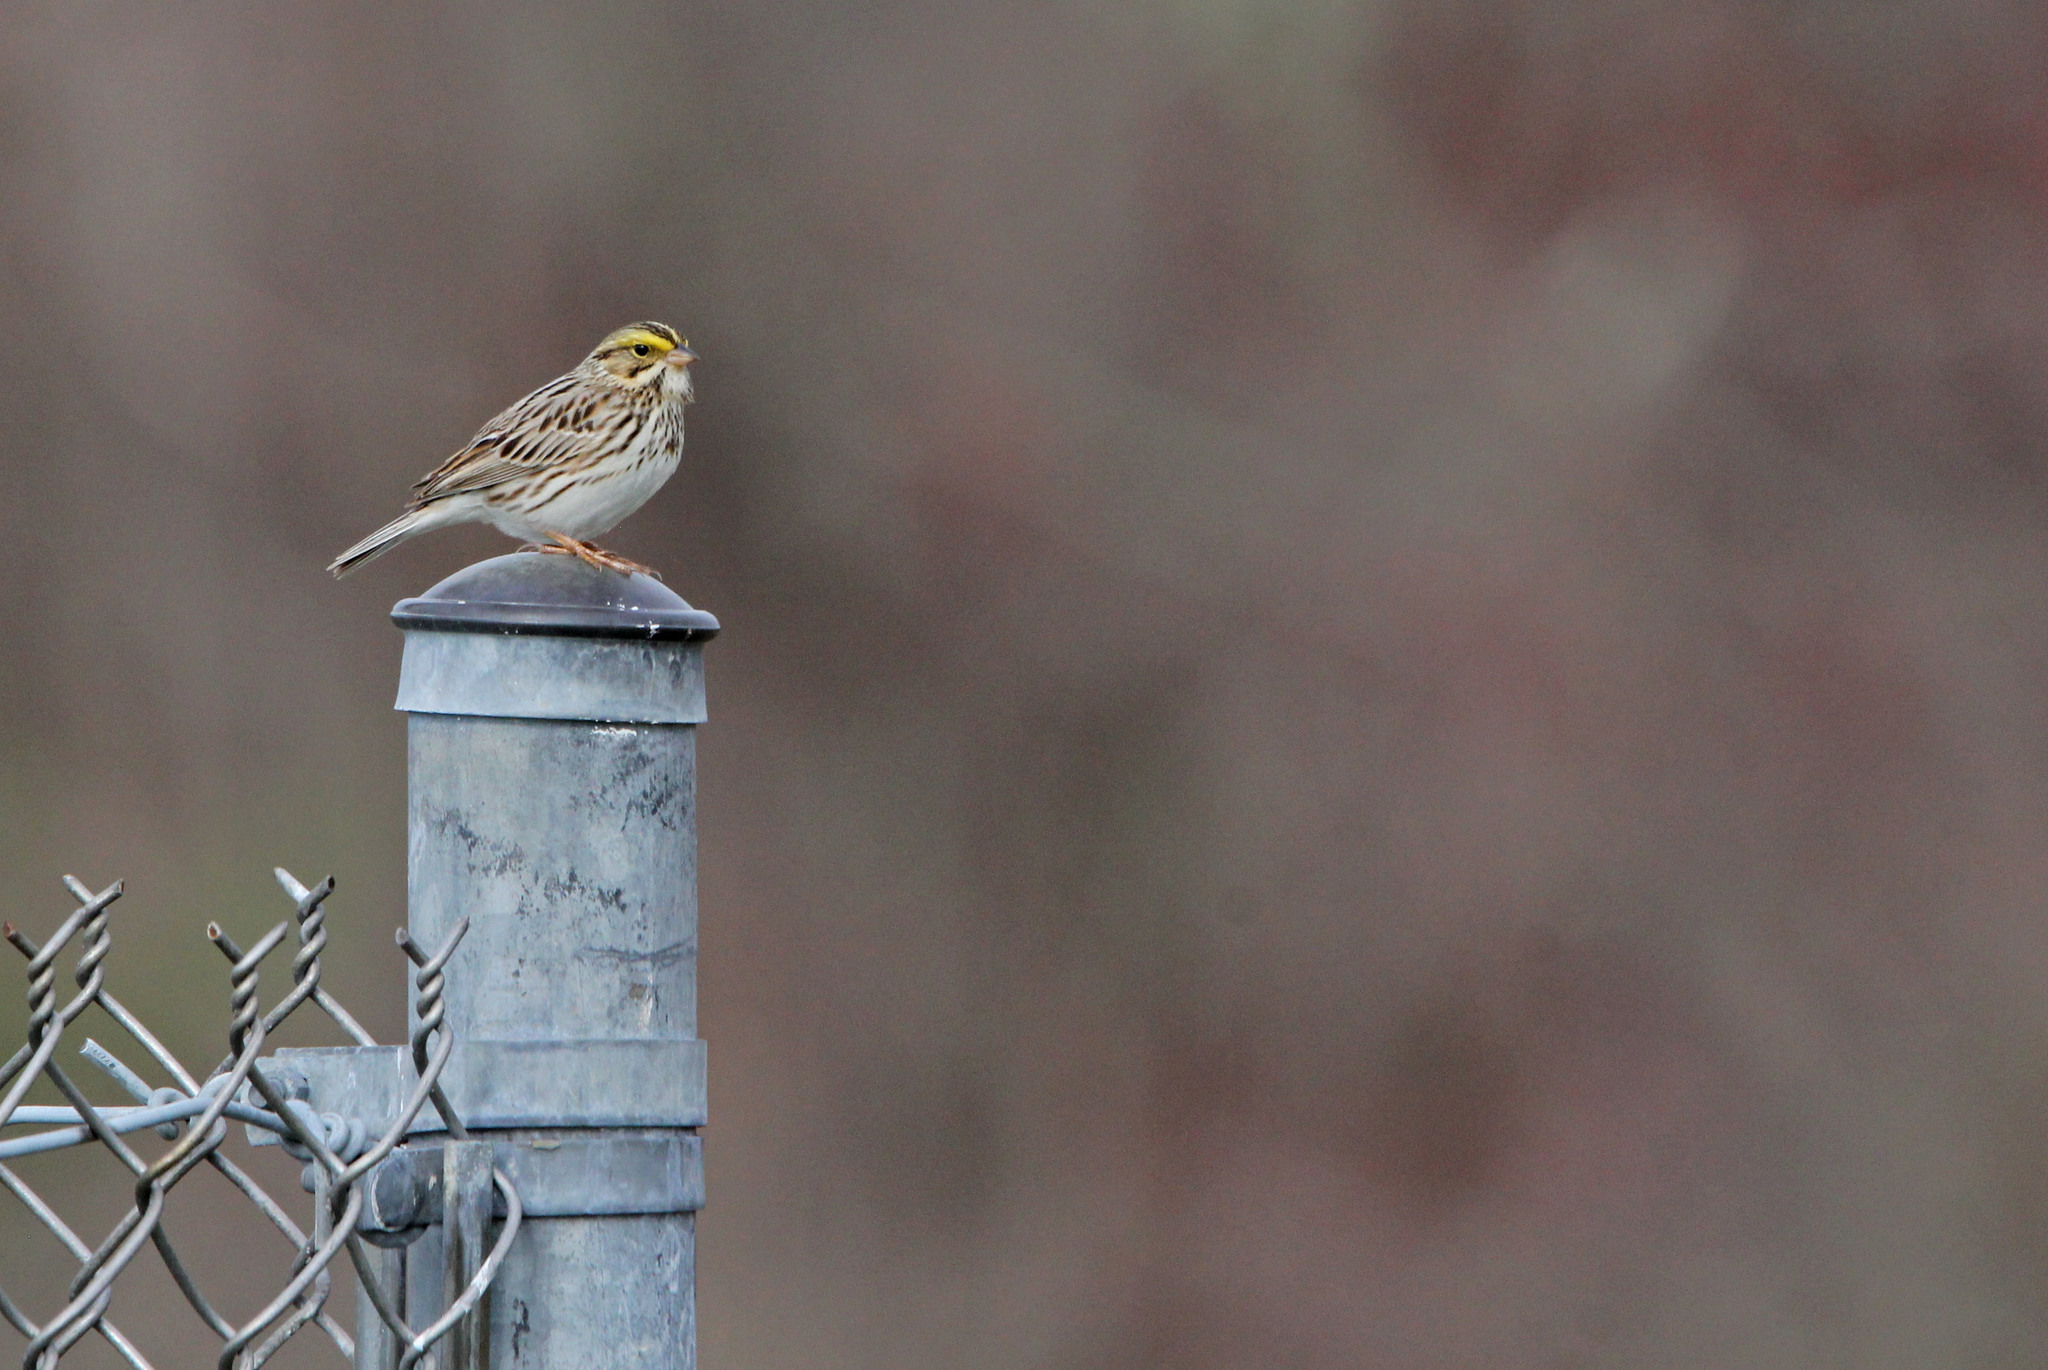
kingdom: Animalia
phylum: Chordata
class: Aves
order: Passeriformes
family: Passerellidae
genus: Passerculus
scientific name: Passerculus sandwichensis
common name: Savannah sparrow
